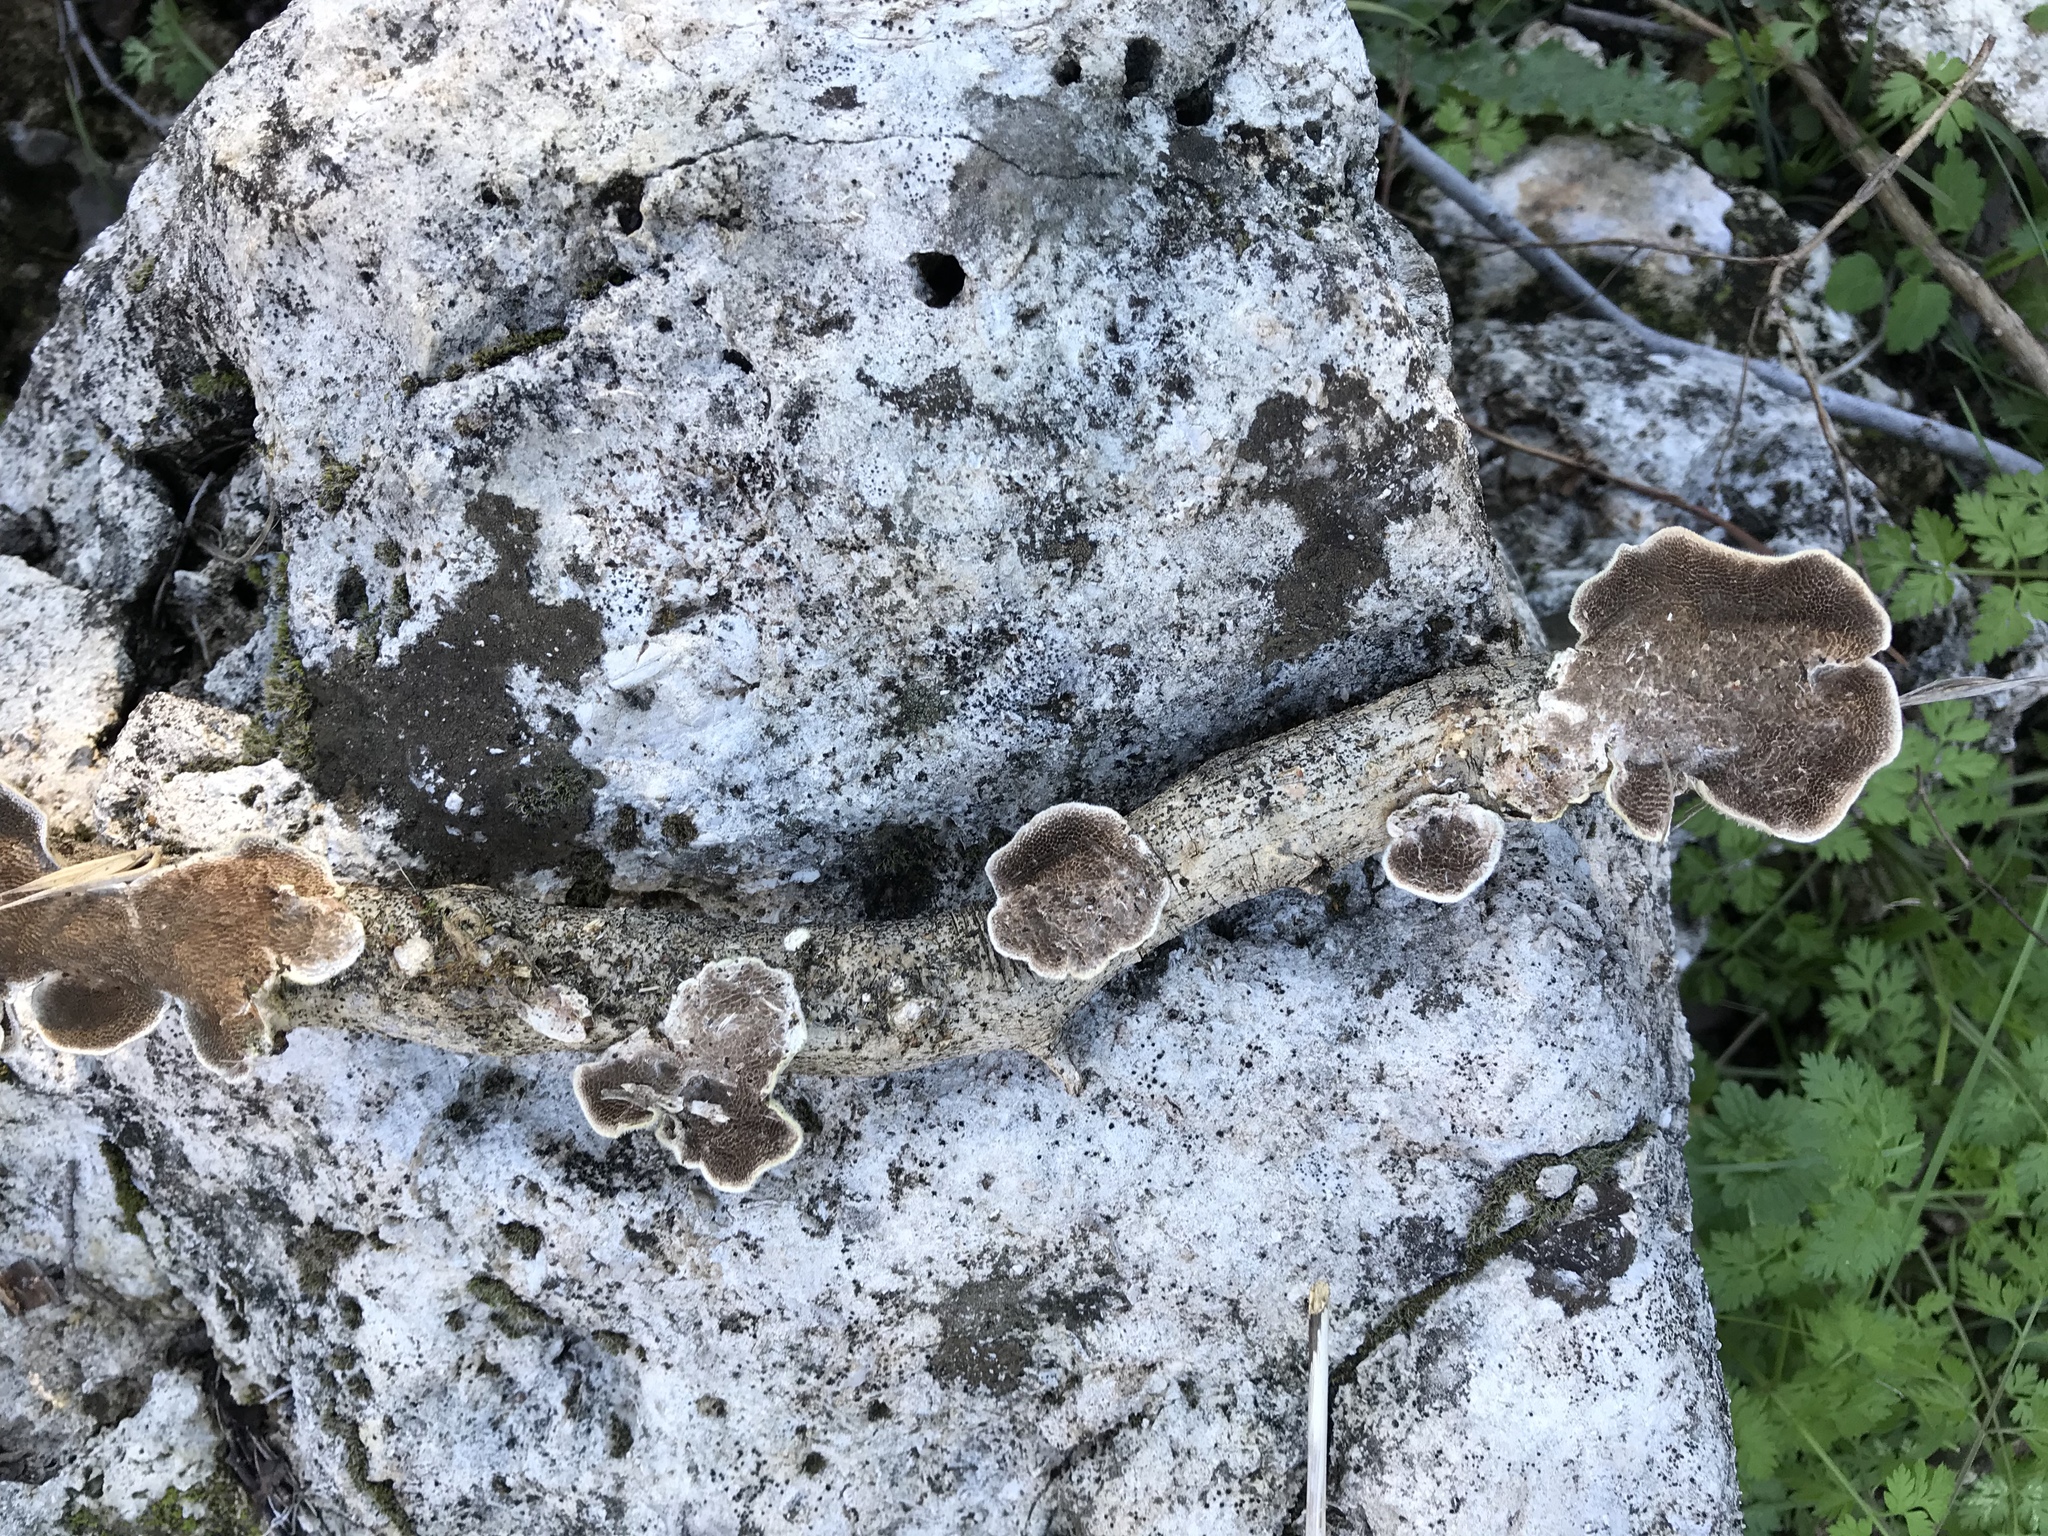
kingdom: Fungi
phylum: Basidiomycota
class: Agaricomycetes
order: Russulales
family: Peniophoraceae
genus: Peniophora
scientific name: Peniophora albobadia
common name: Giraffe spots
